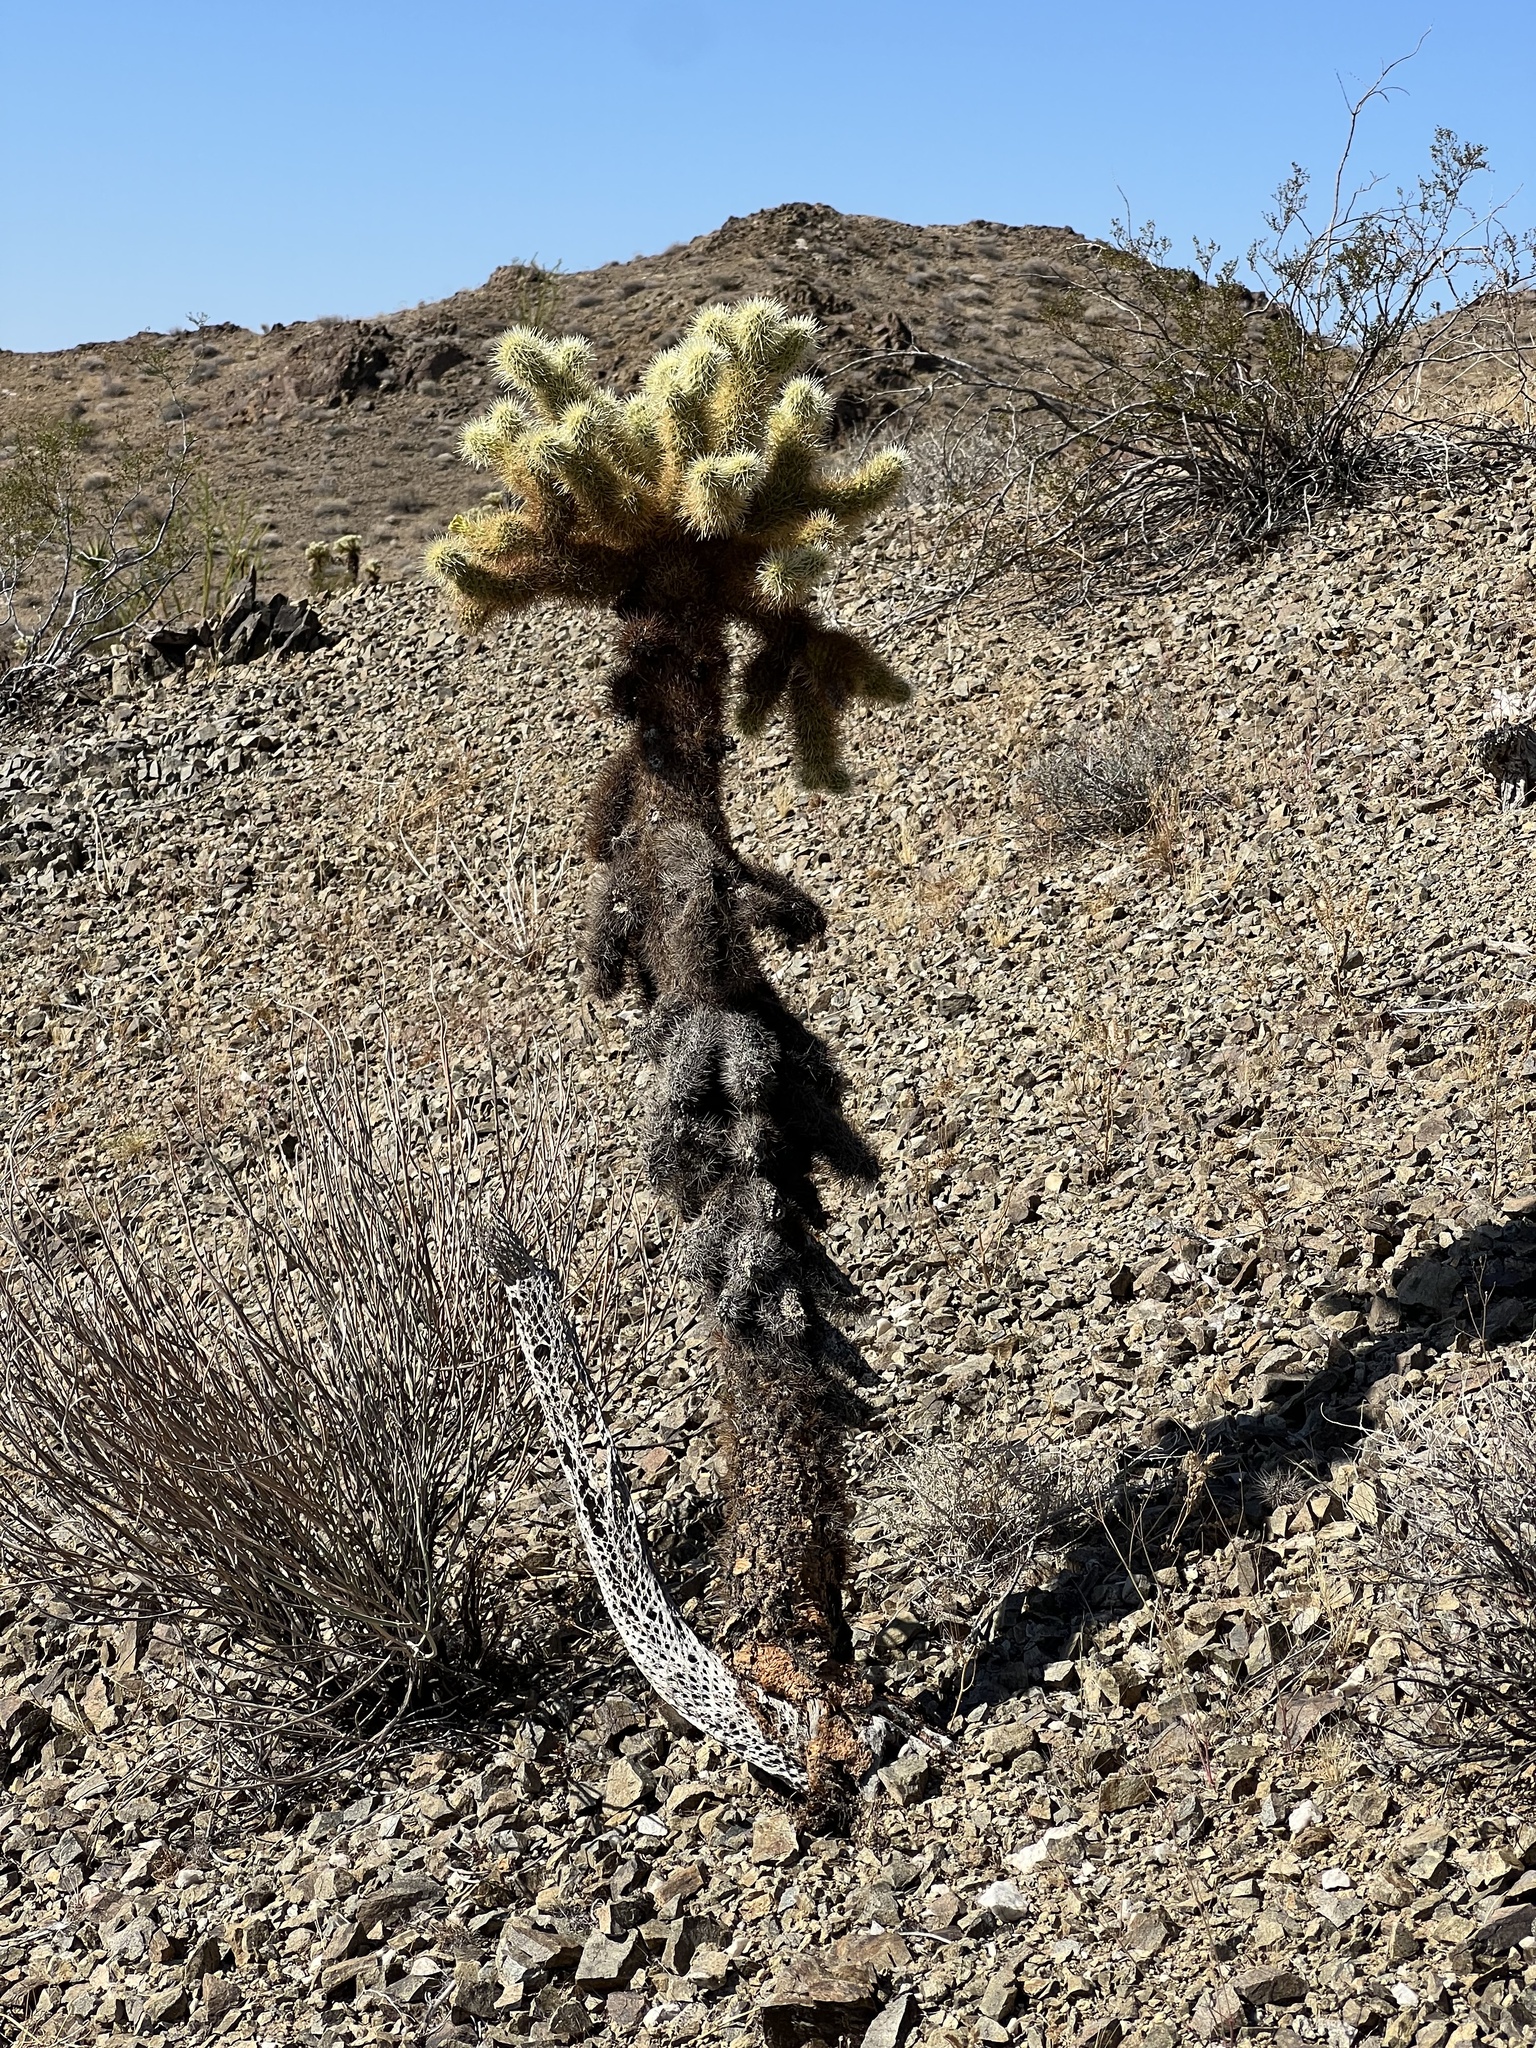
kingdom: Plantae
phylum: Tracheophyta
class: Magnoliopsida
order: Caryophyllales
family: Cactaceae
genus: Cylindropuntia
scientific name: Cylindropuntia fosbergii
